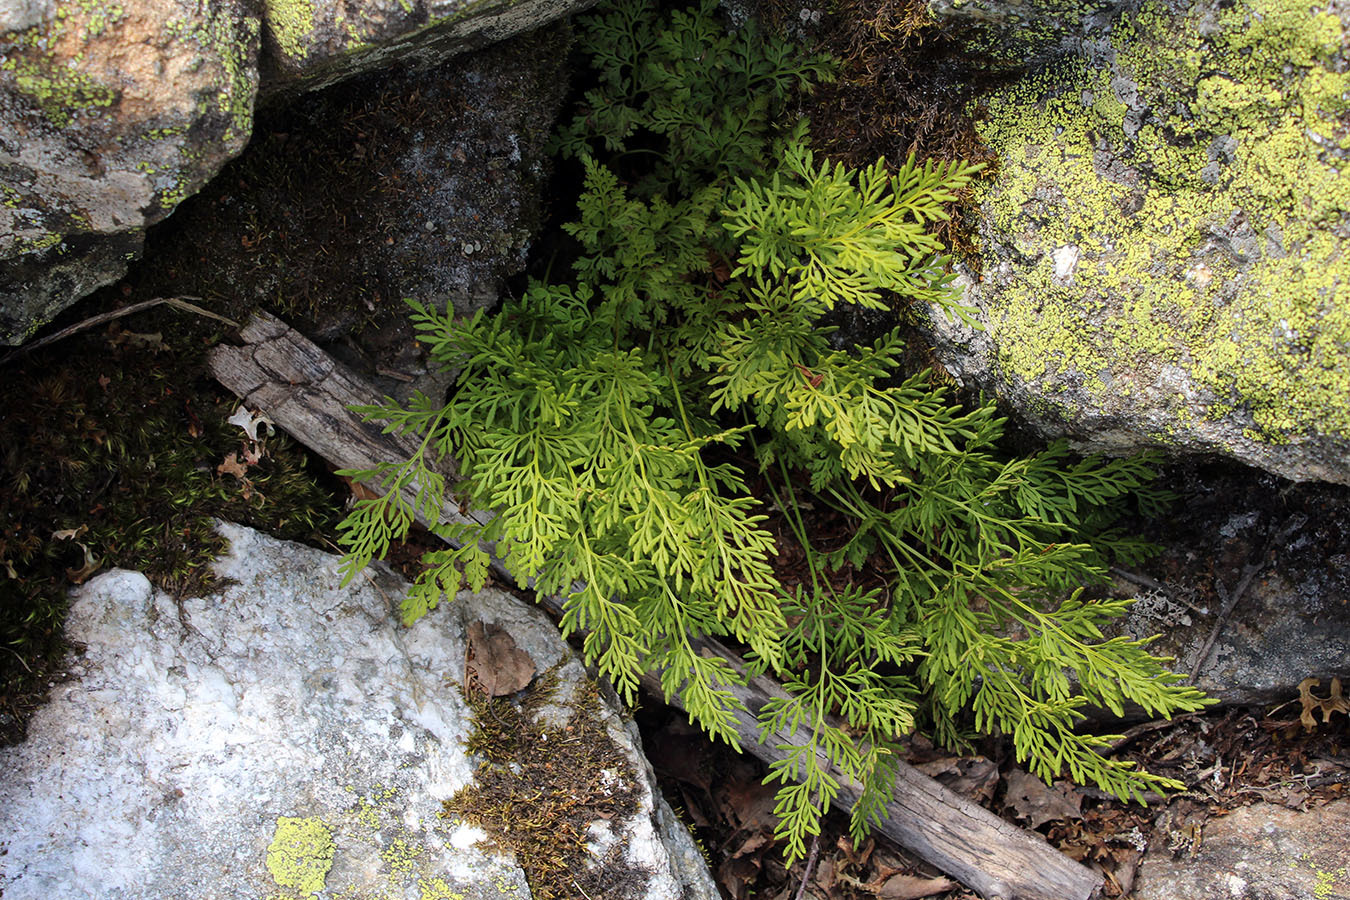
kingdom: Plantae
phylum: Tracheophyta
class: Polypodiopsida
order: Polypodiales
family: Pteridaceae
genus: Cryptogramma
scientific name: Cryptogramma crispa
